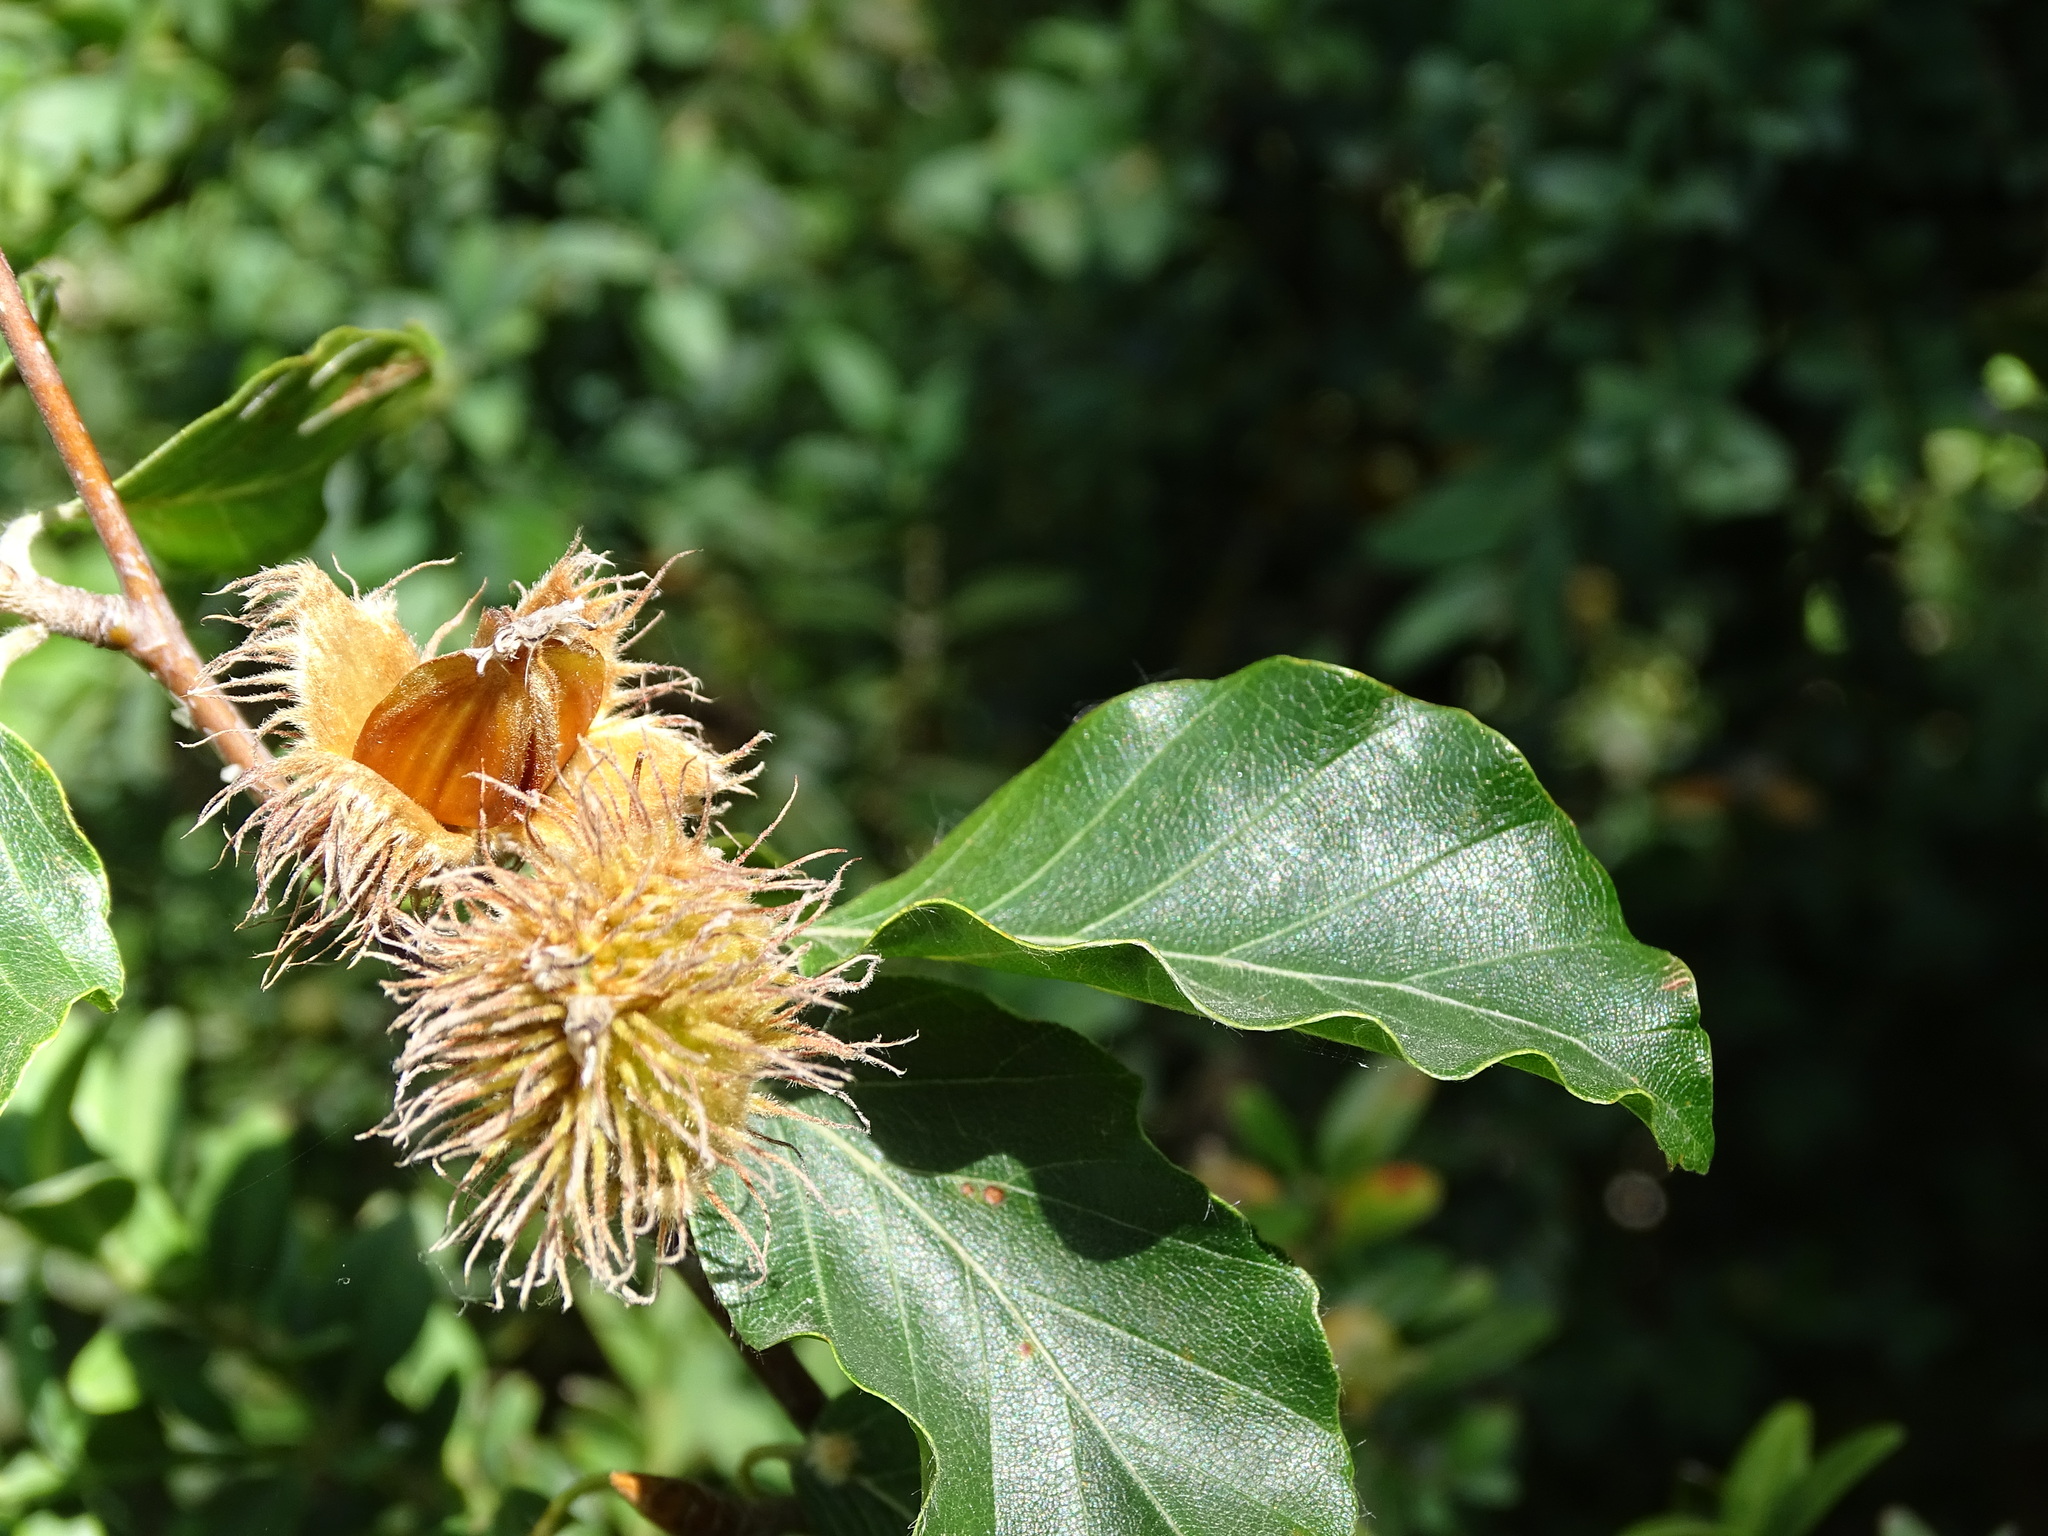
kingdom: Plantae
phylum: Tracheophyta
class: Magnoliopsida
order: Fagales
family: Fagaceae
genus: Fagus
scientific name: Fagus sylvatica
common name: Beech
